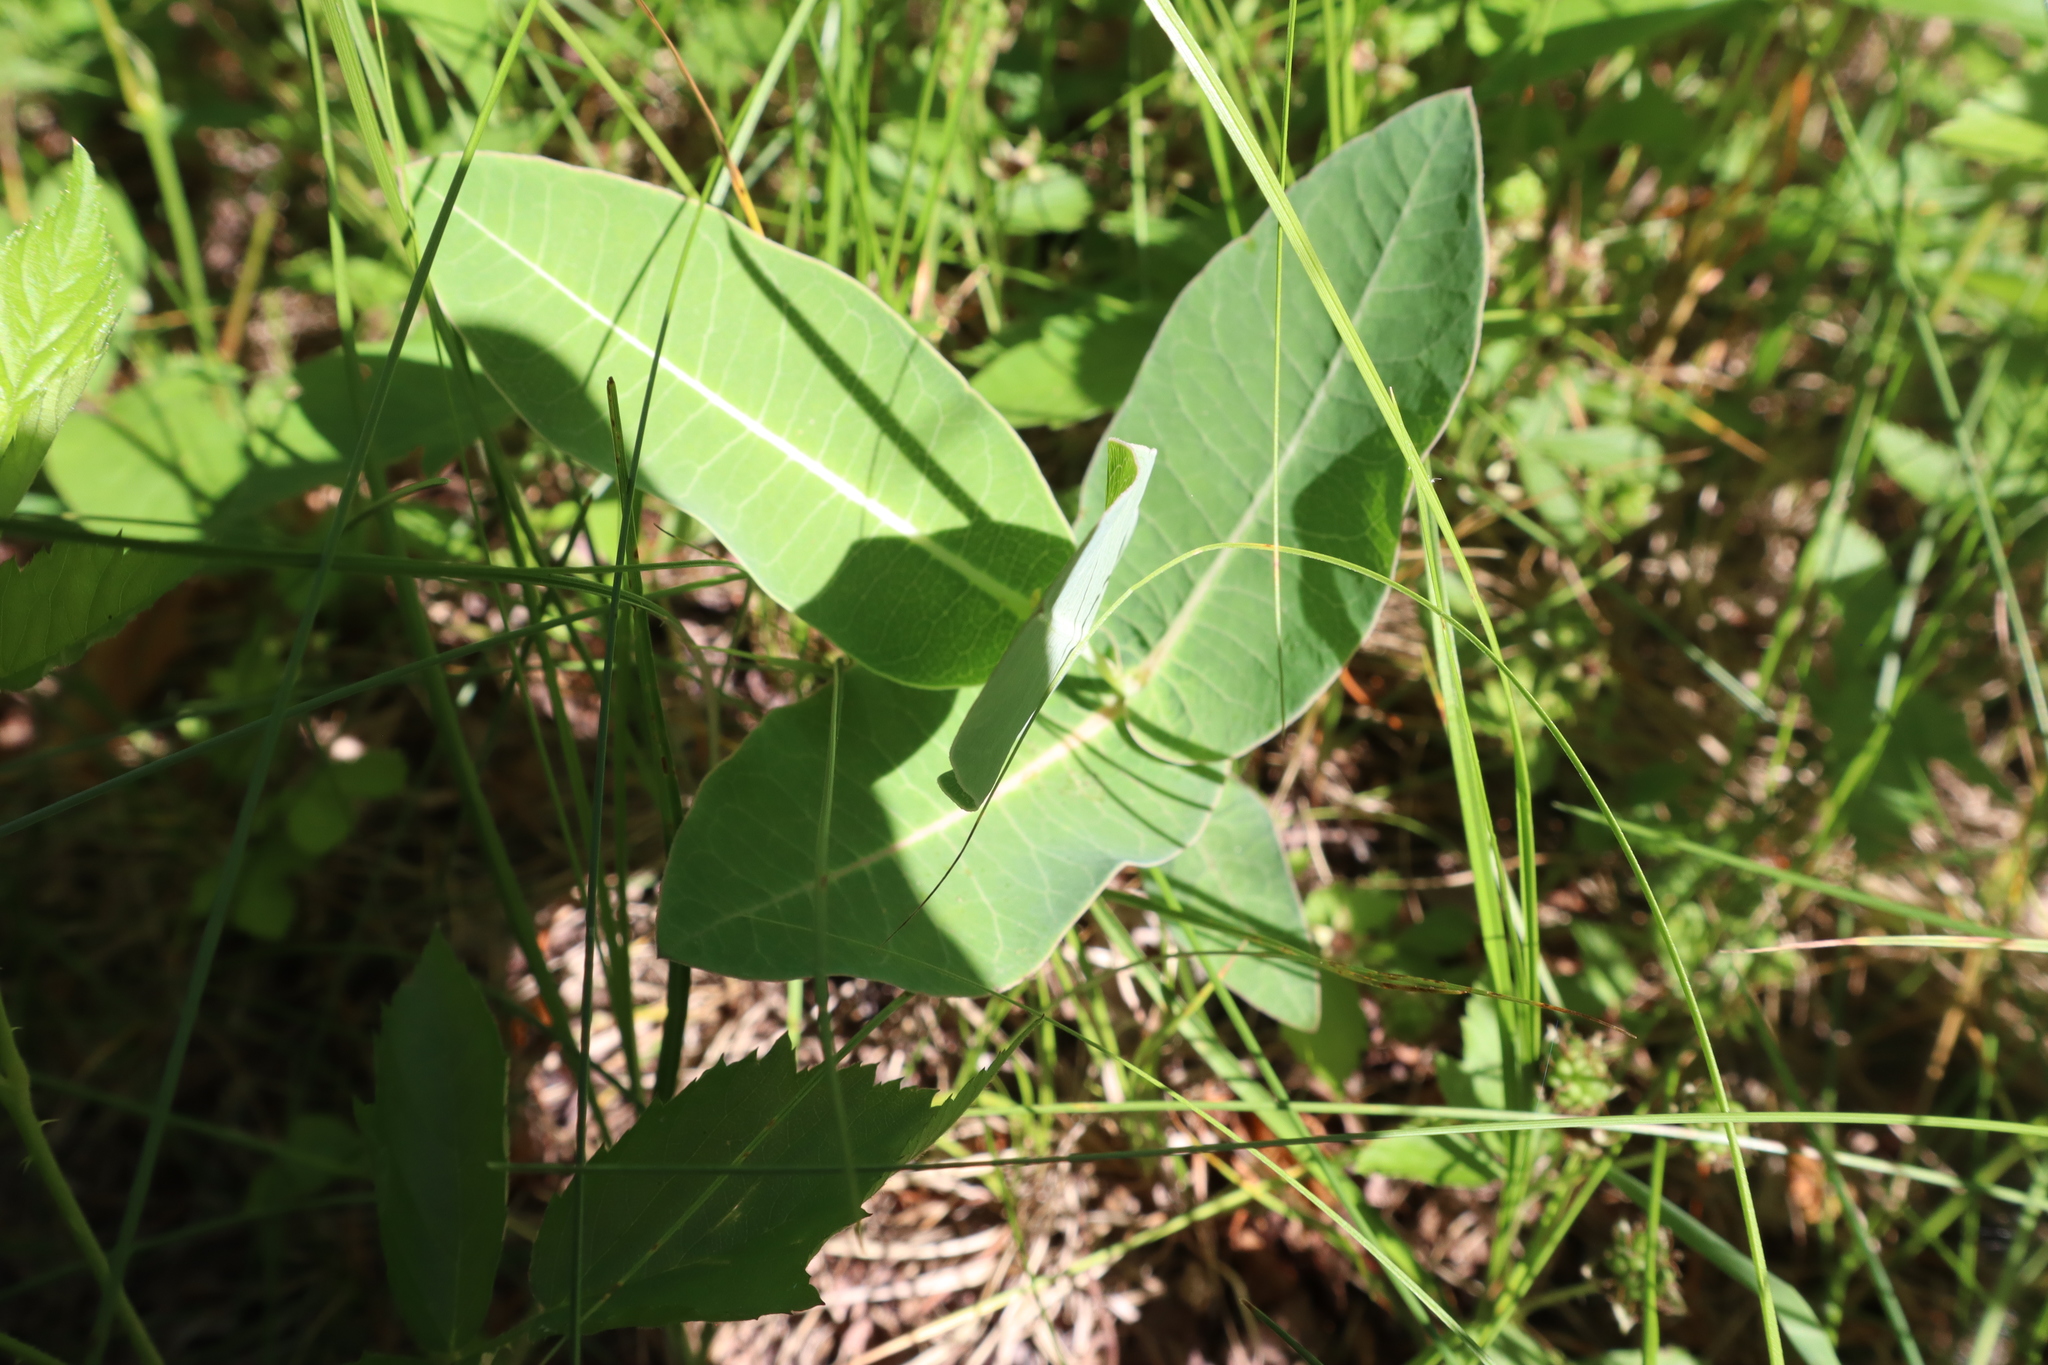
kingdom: Plantae
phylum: Tracheophyta
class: Magnoliopsida
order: Gentianales
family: Apocynaceae
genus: Asclepias
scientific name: Asclepias amplexicaulis
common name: Blunt-leaf milkweed
